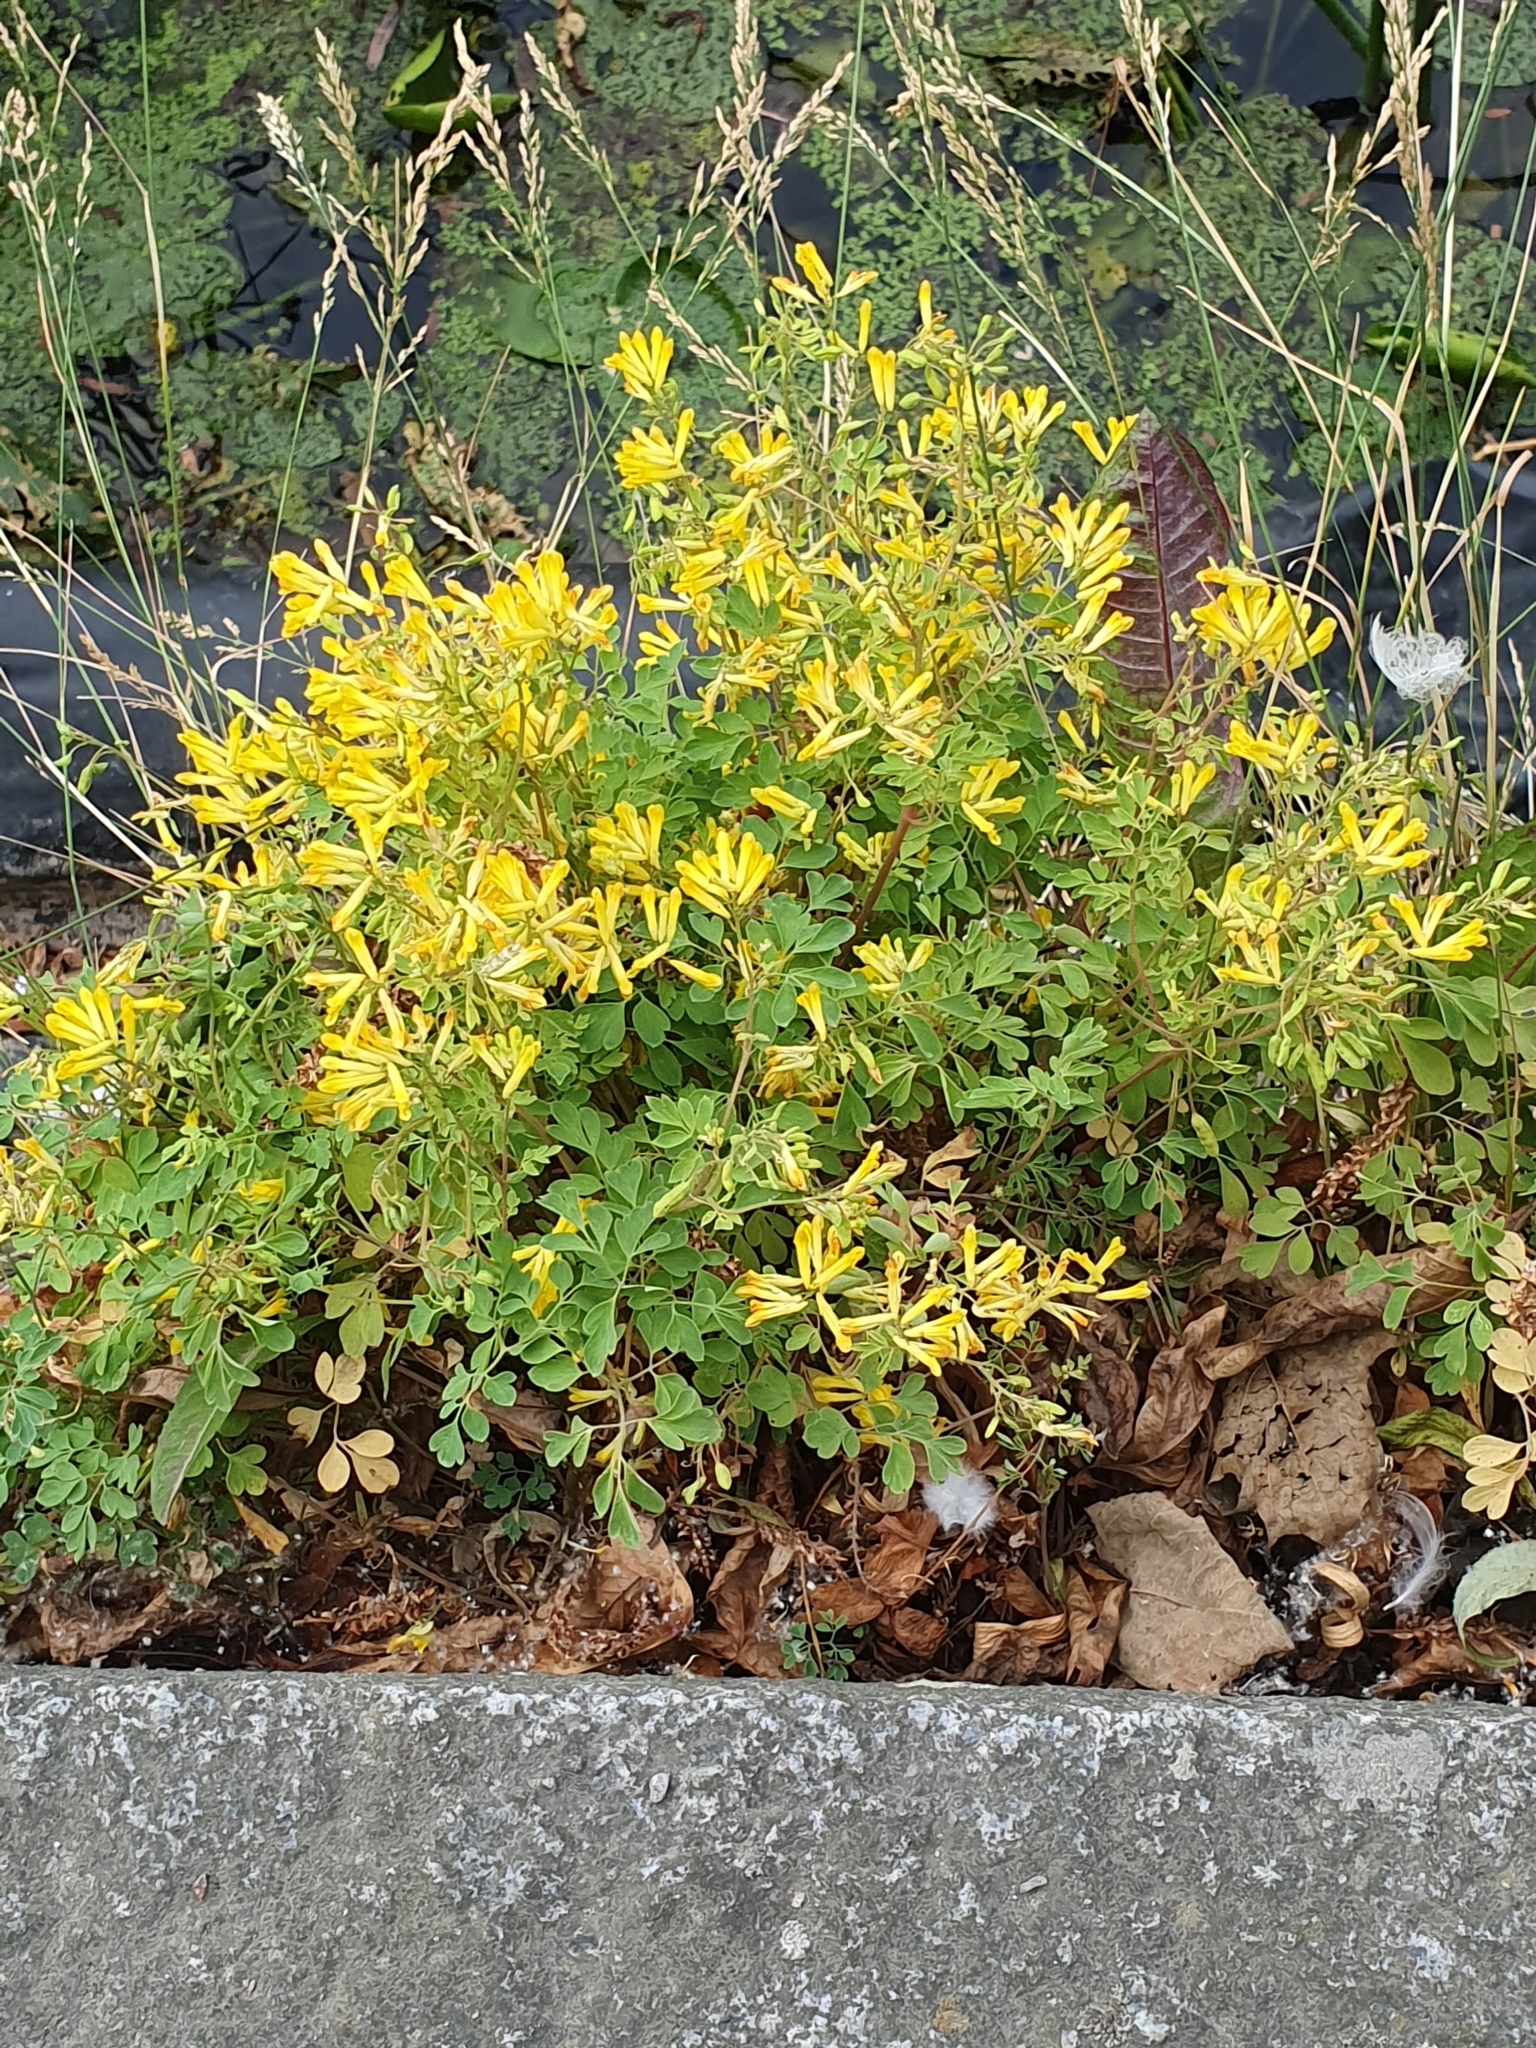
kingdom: Plantae
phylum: Tracheophyta
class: Magnoliopsida
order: Ranunculales
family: Papaveraceae
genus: Pseudofumaria
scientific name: Pseudofumaria lutea
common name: Yellow corydalis
